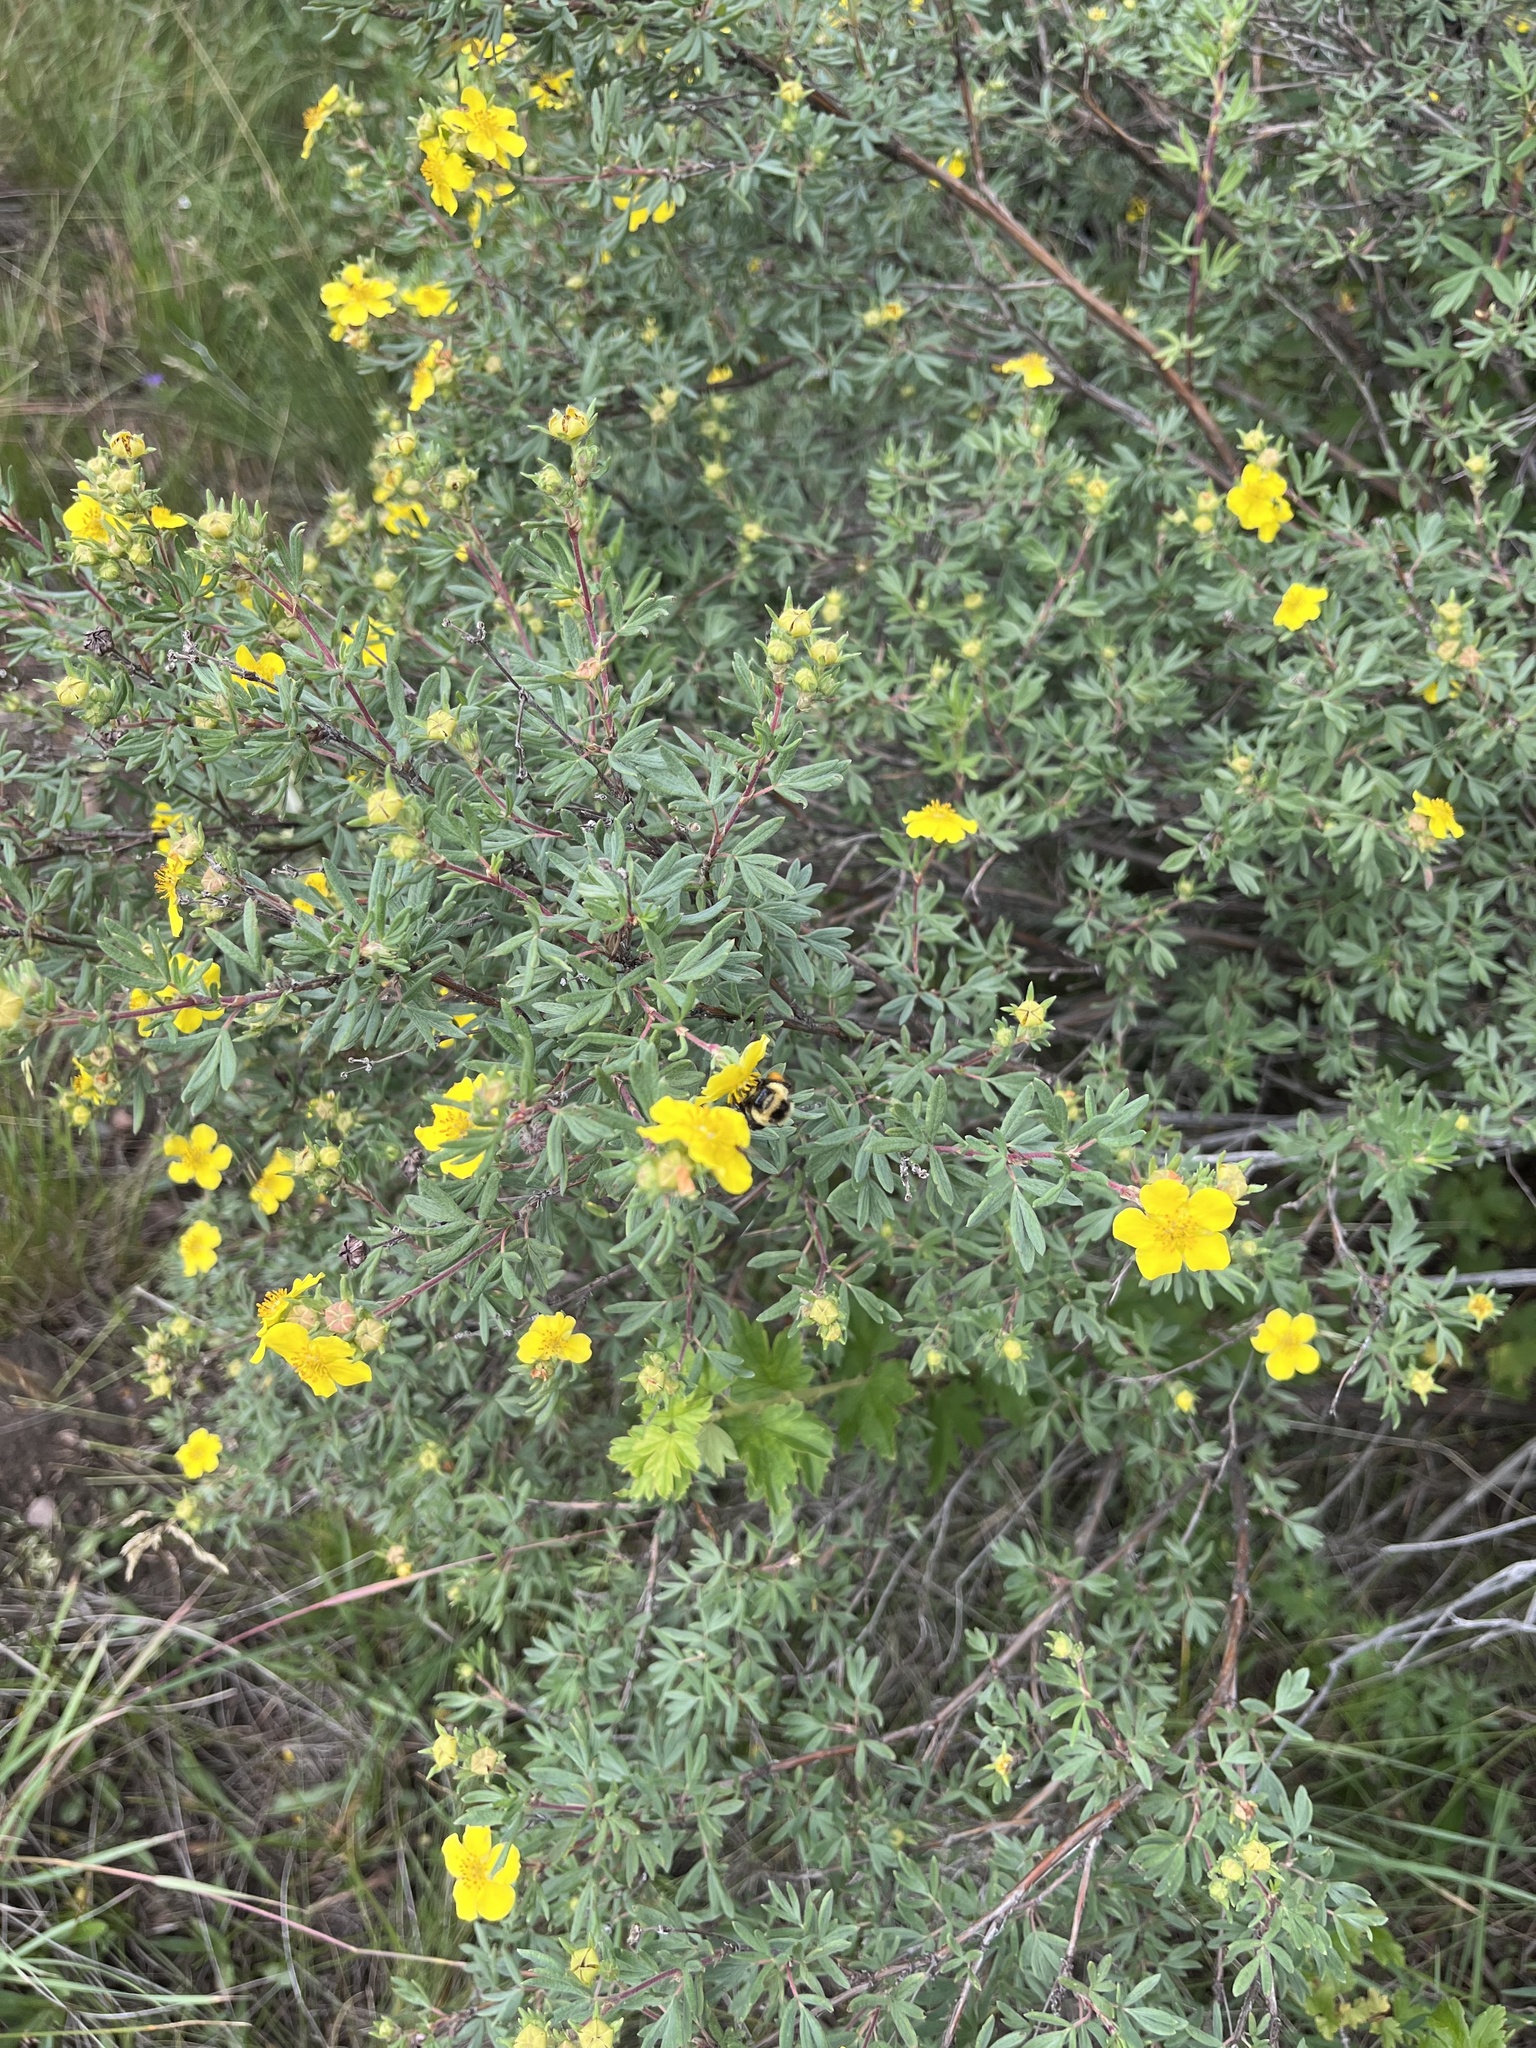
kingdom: Plantae
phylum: Tracheophyta
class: Magnoliopsida
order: Rosales
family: Rosaceae
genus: Dasiphora
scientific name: Dasiphora fruticosa
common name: Shrubby cinquefoil
